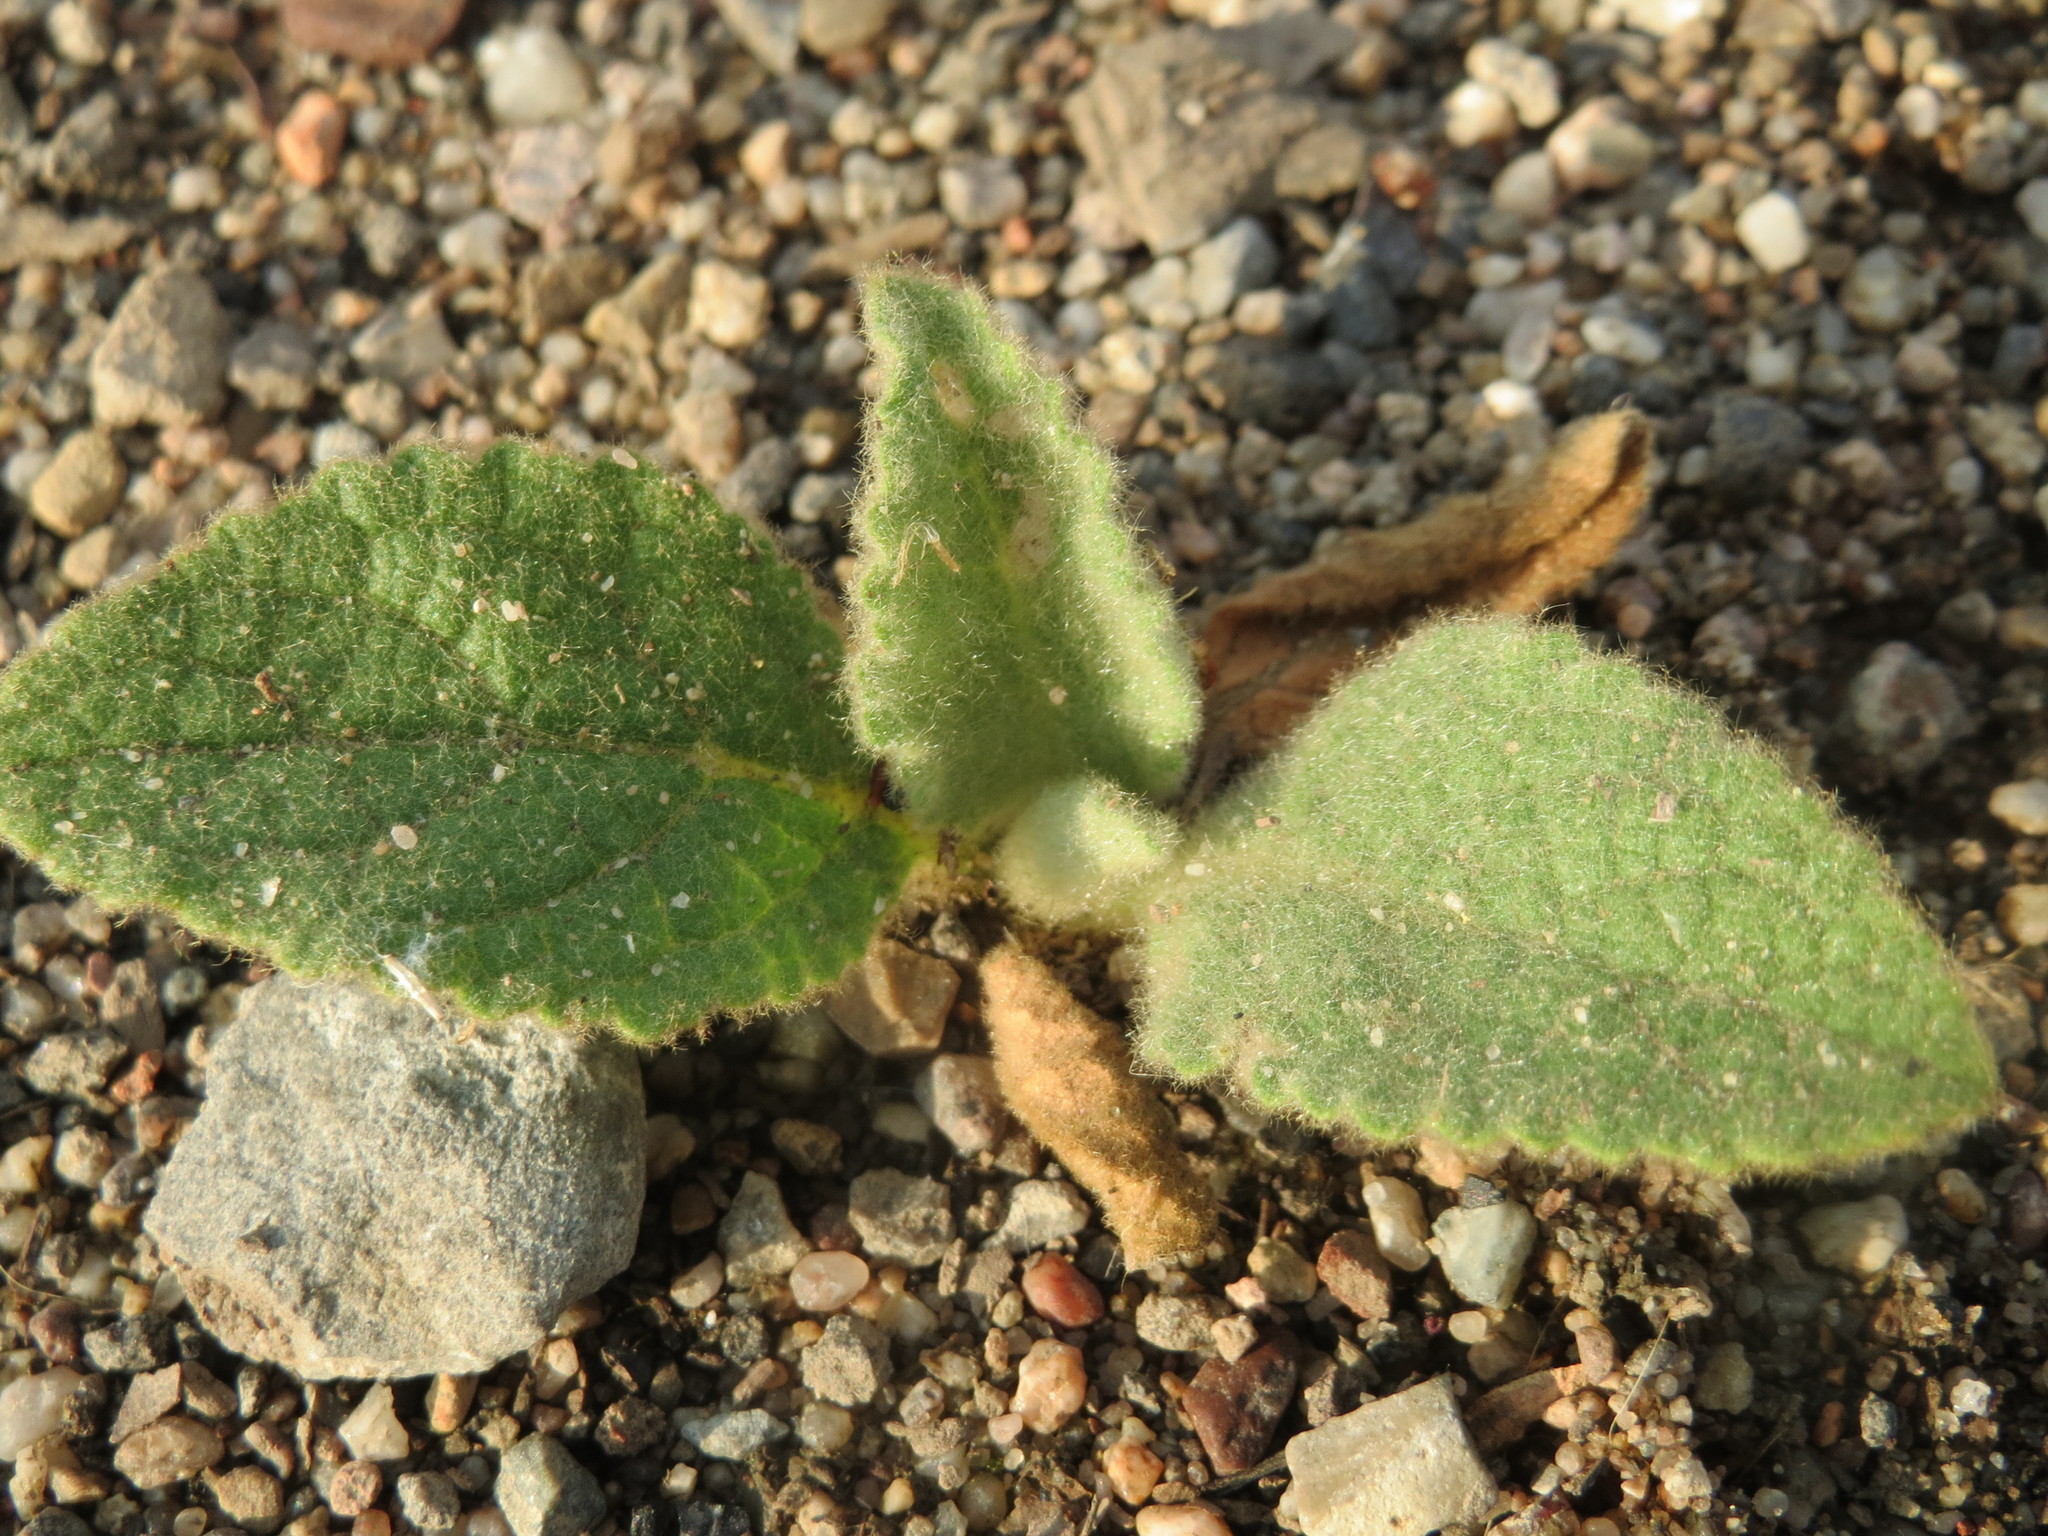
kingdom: Plantae
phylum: Tracheophyta
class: Magnoliopsida
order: Lamiales
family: Scrophulariaceae
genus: Verbascum
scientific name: Verbascum thapsus
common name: Common mullein
